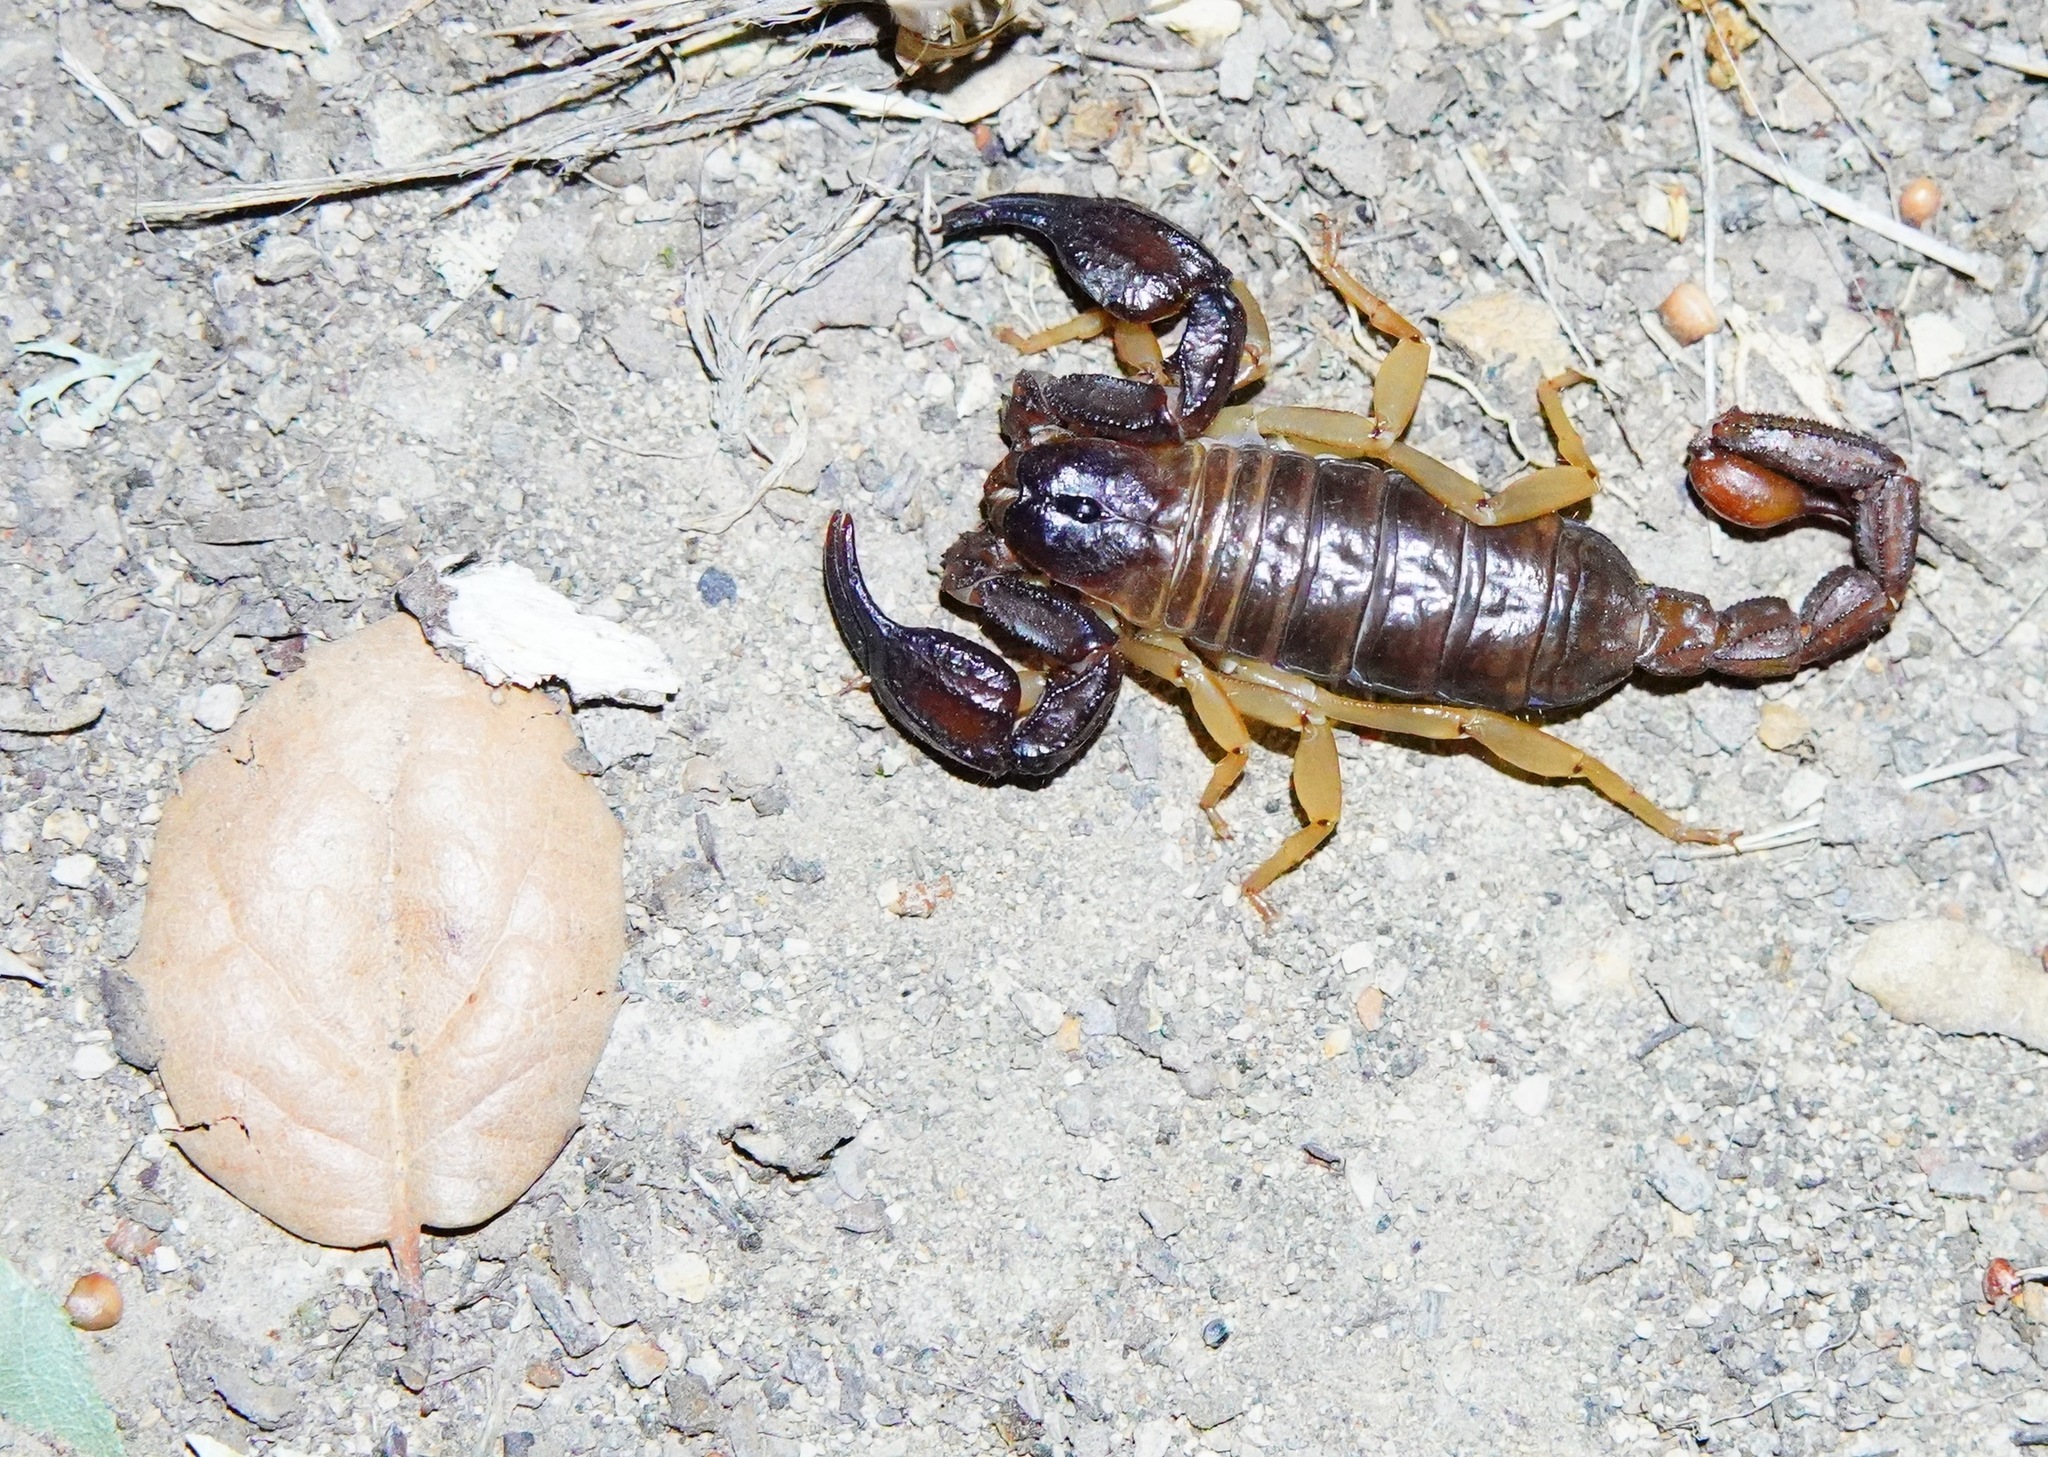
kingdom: Animalia
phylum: Arthropoda
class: Arachnida
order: Scorpiones
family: Chactidae
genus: Uroctonus
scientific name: Uroctonus mordax
